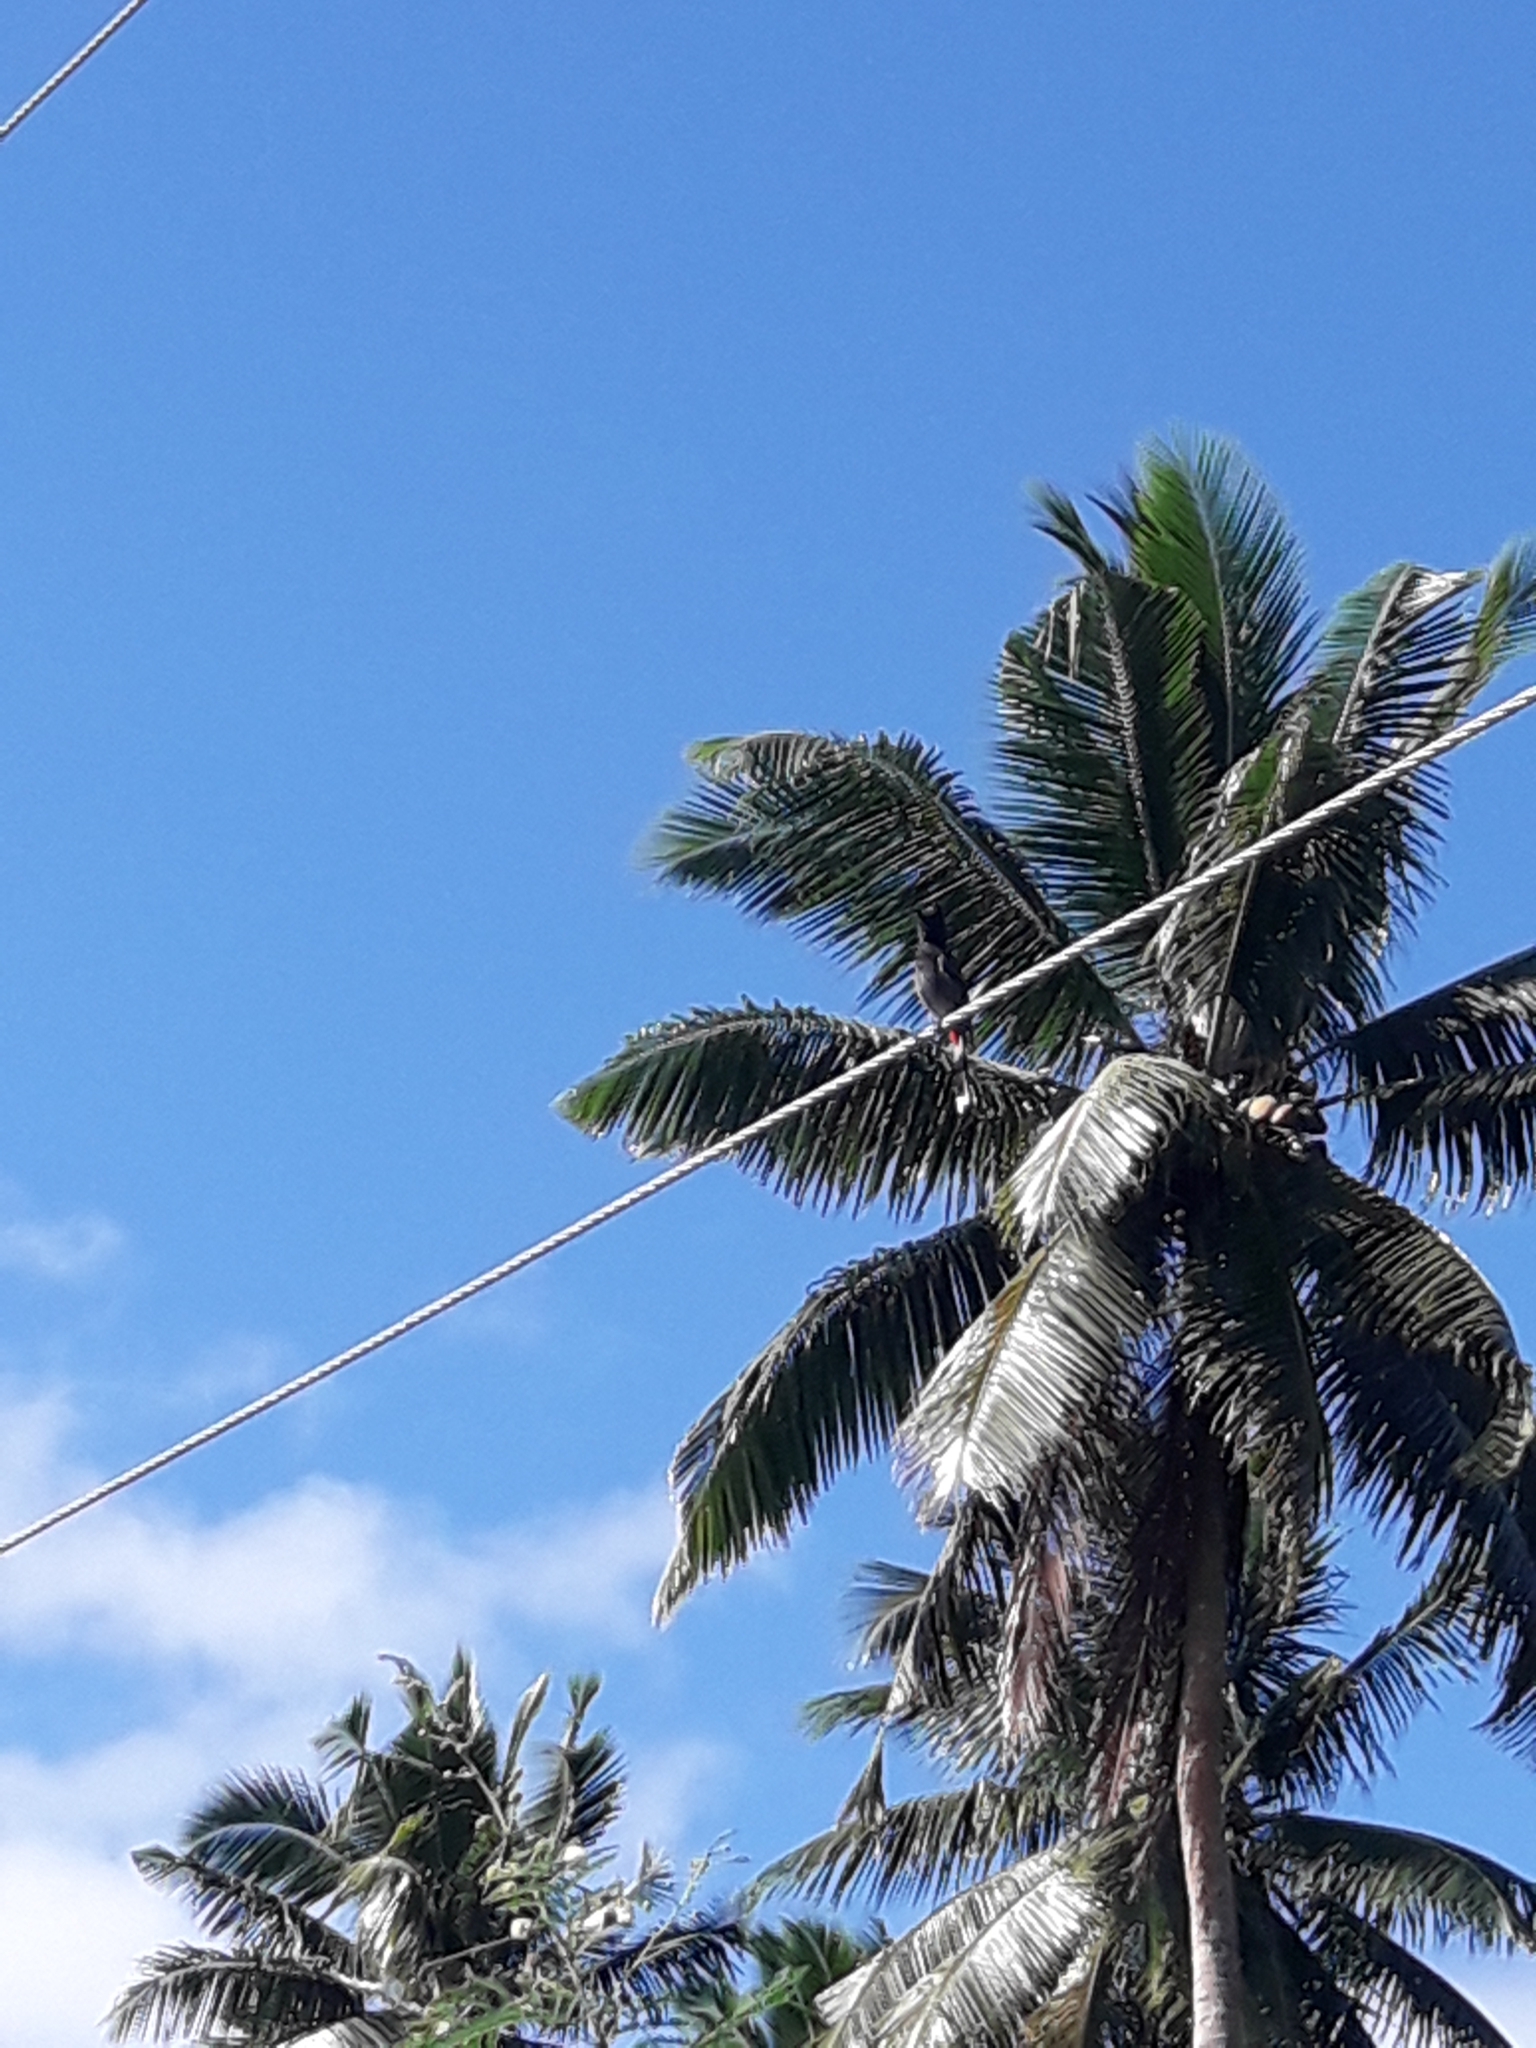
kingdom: Animalia
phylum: Chordata
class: Aves
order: Passeriformes
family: Pycnonotidae
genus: Pycnonotus
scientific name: Pycnonotus cafer
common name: Red-vented bulbul
